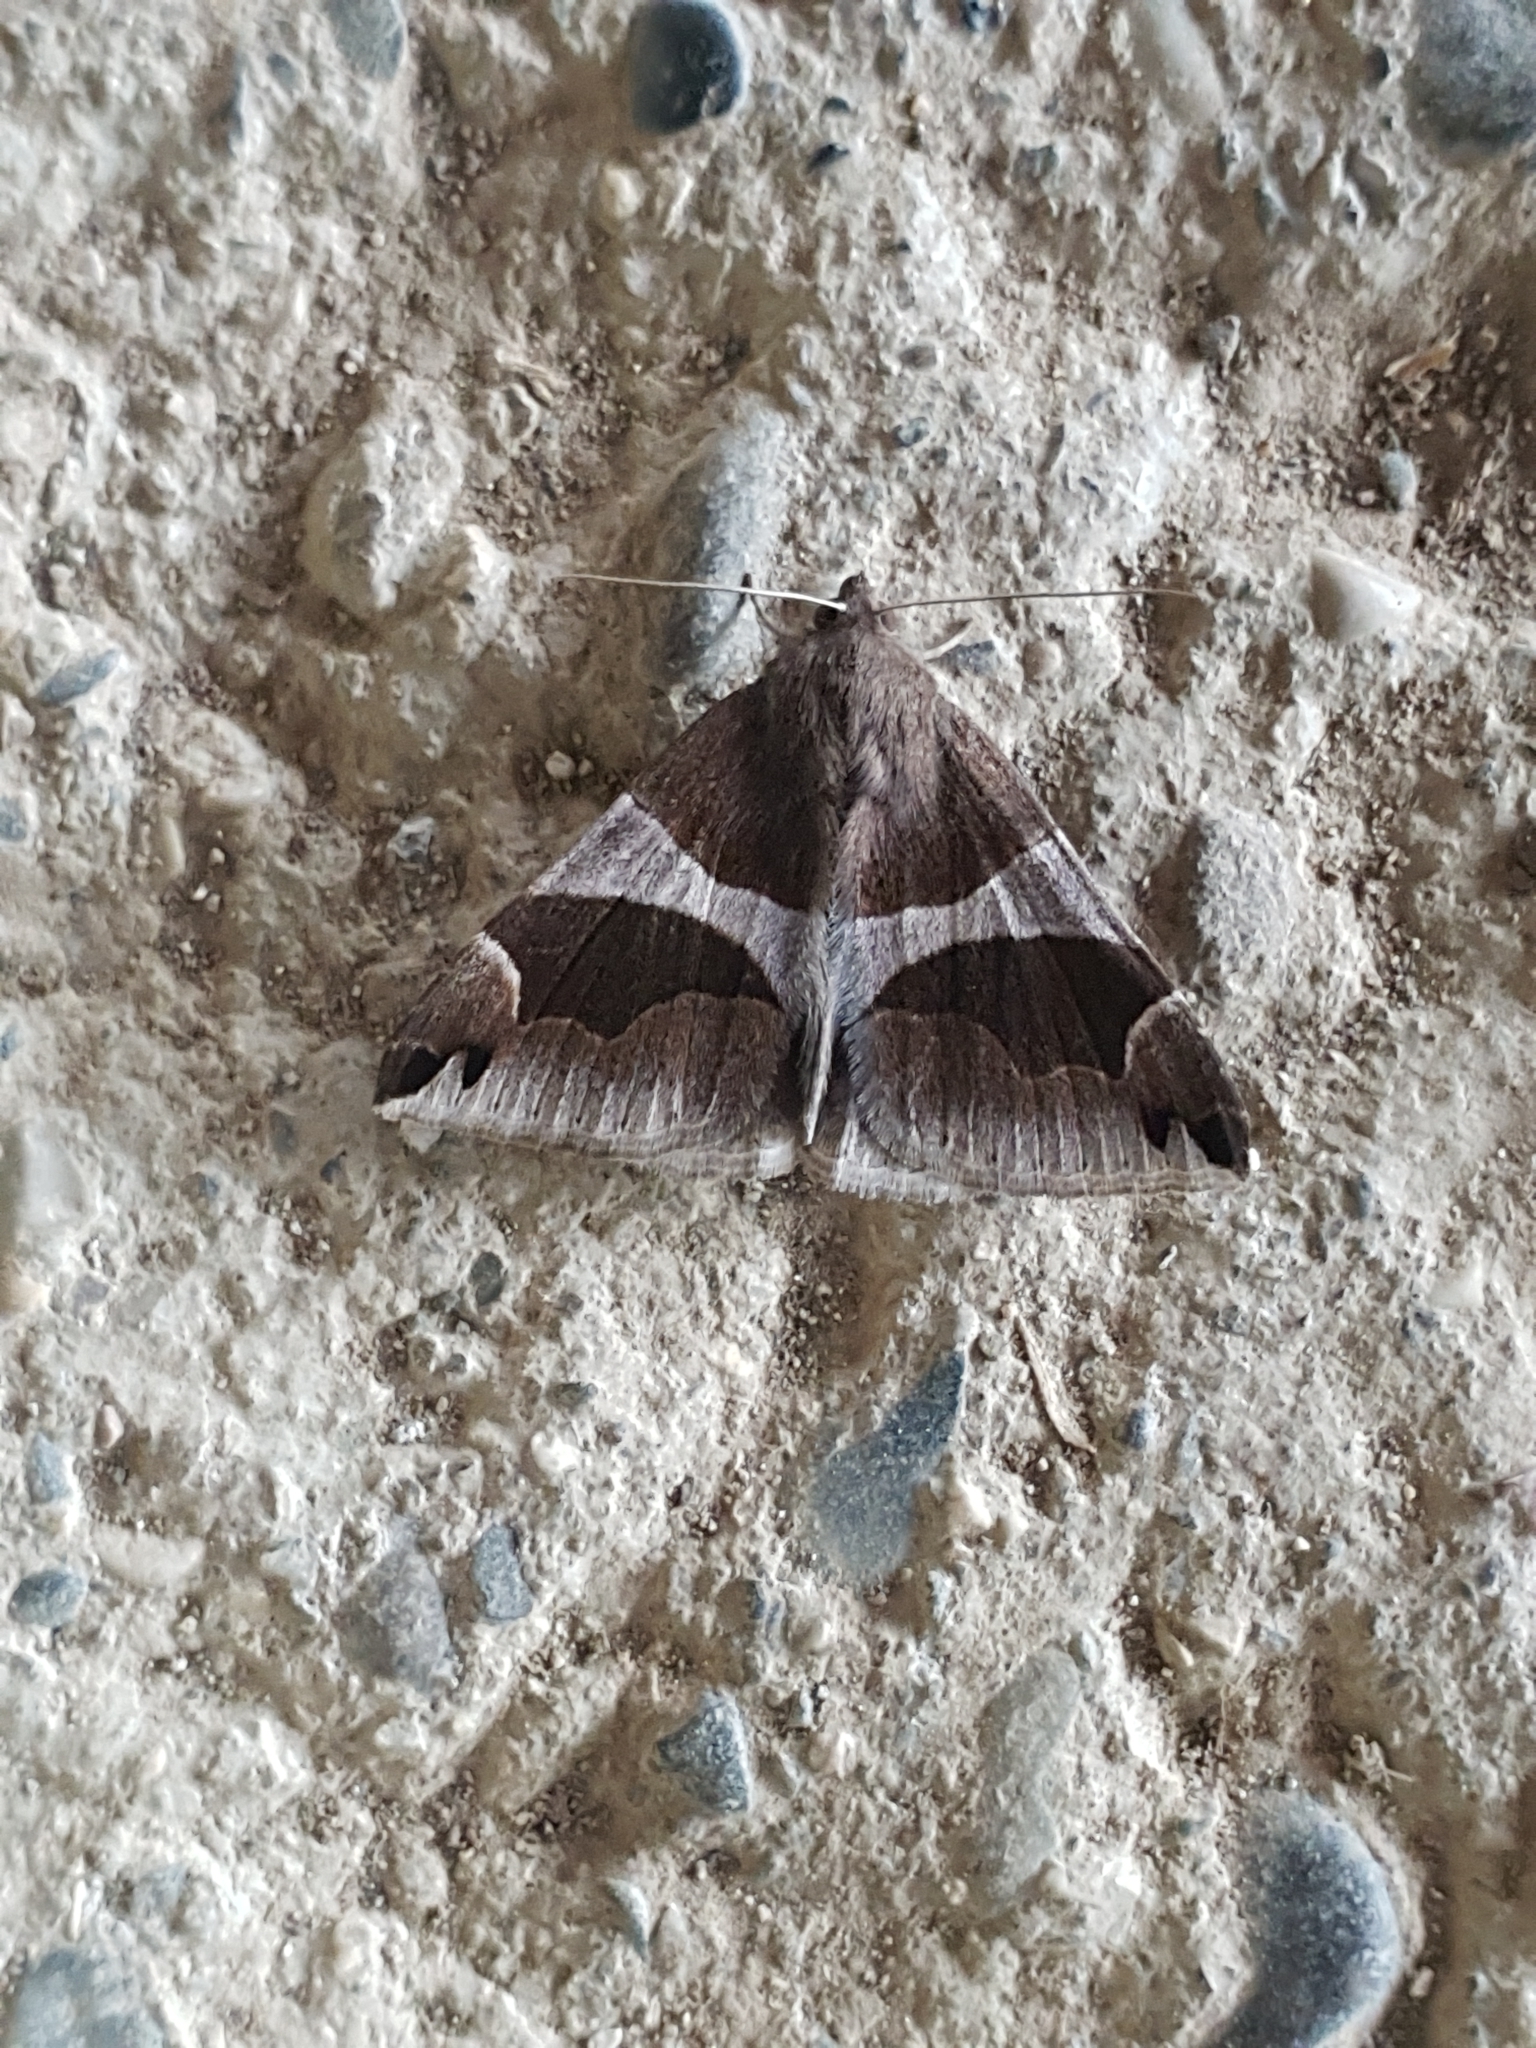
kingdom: Animalia
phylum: Arthropoda
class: Insecta
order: Lepidoptera
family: Erebidae
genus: Dysgonia
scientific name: Dysgonia algira
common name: Passenger
